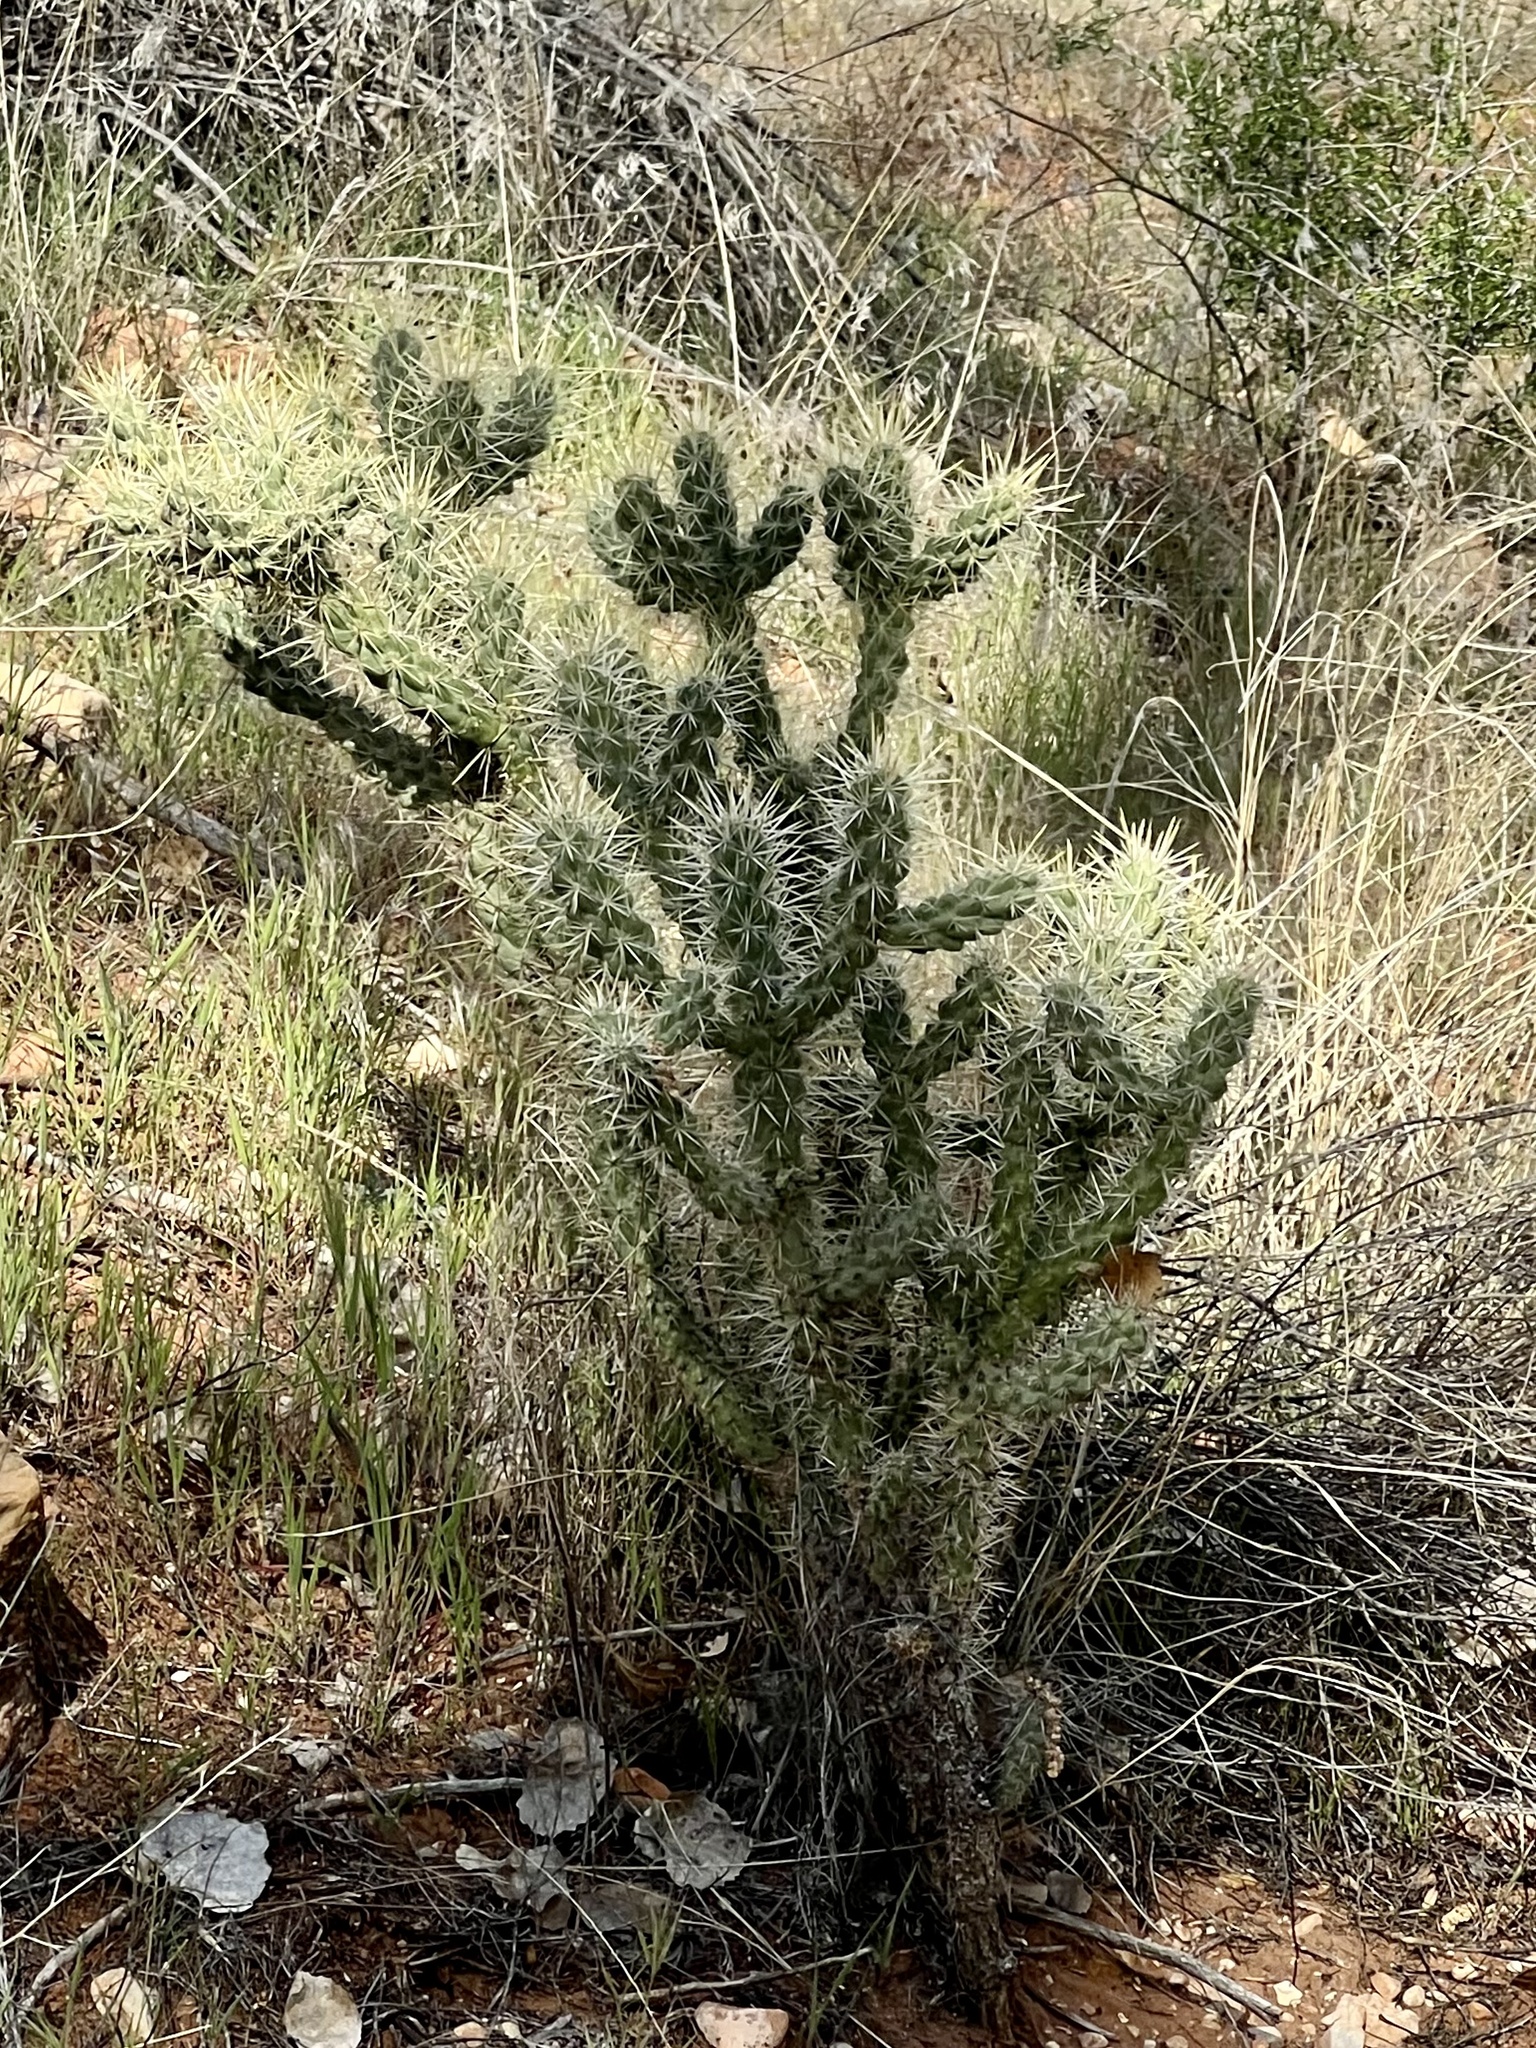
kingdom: Plantae
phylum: Tracheophyta
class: Magnoliopsida
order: Caryophyllales
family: Cactaceae
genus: Cylindropuntia
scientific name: Cylindropuntia echinocarpa
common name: Ground cholla
